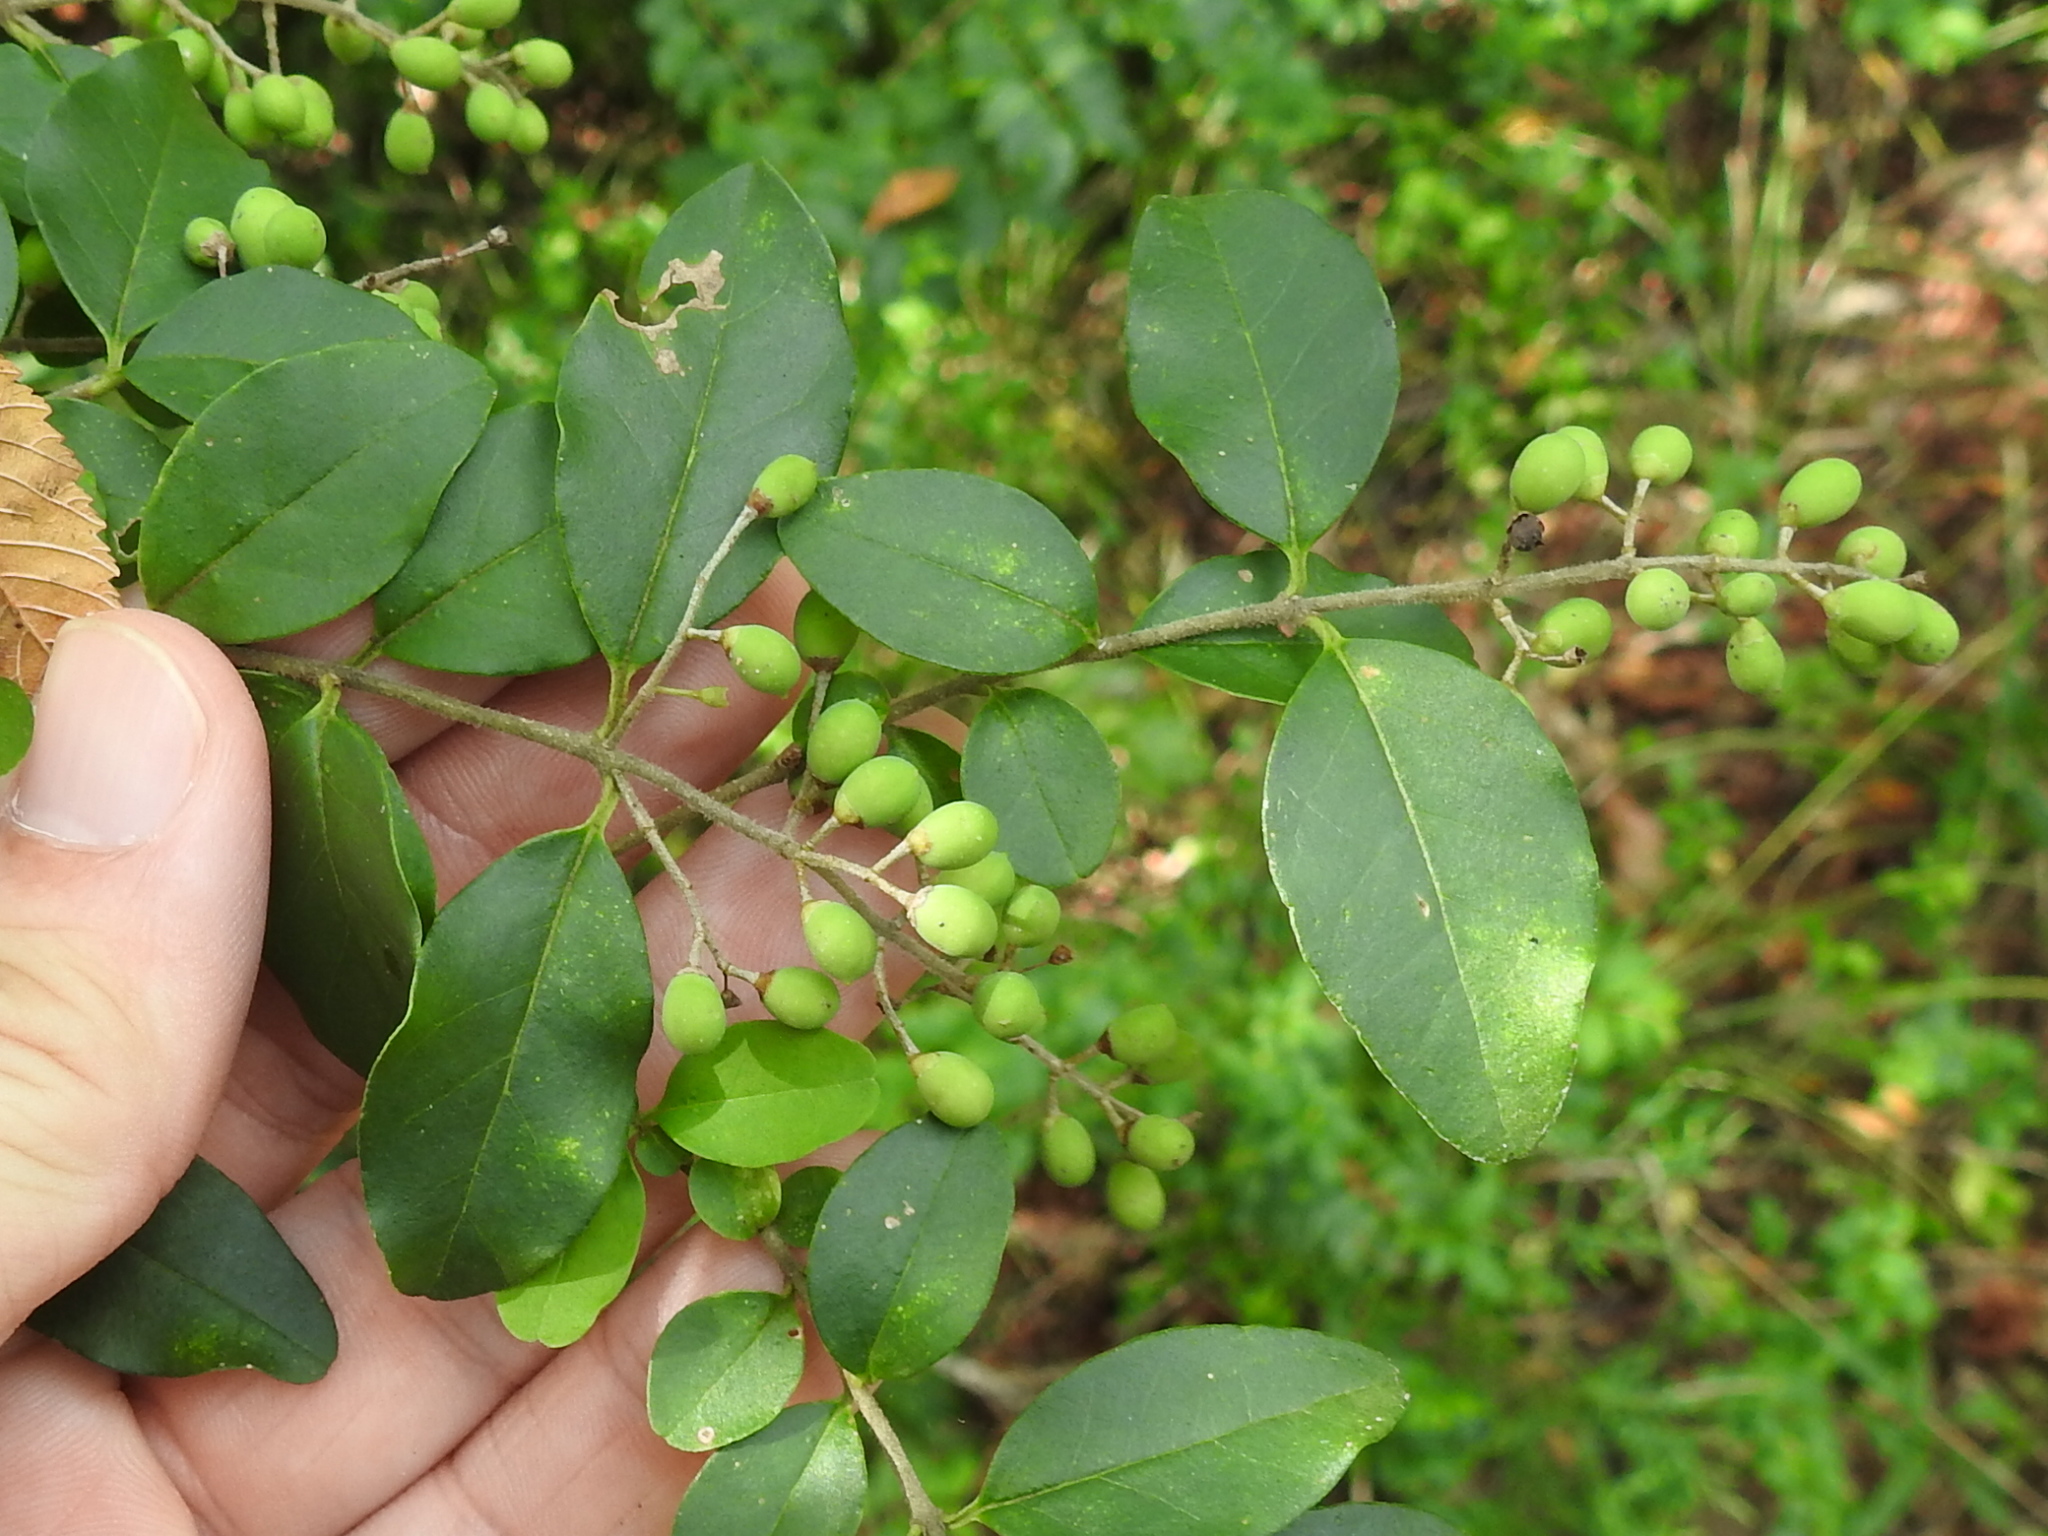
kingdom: Plantae
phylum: Tracheophyta
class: Magnoliopsida
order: Lamiales
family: Oleaceae
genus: Ligustrum
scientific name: Ligustrum sinense
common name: Chinese privet
